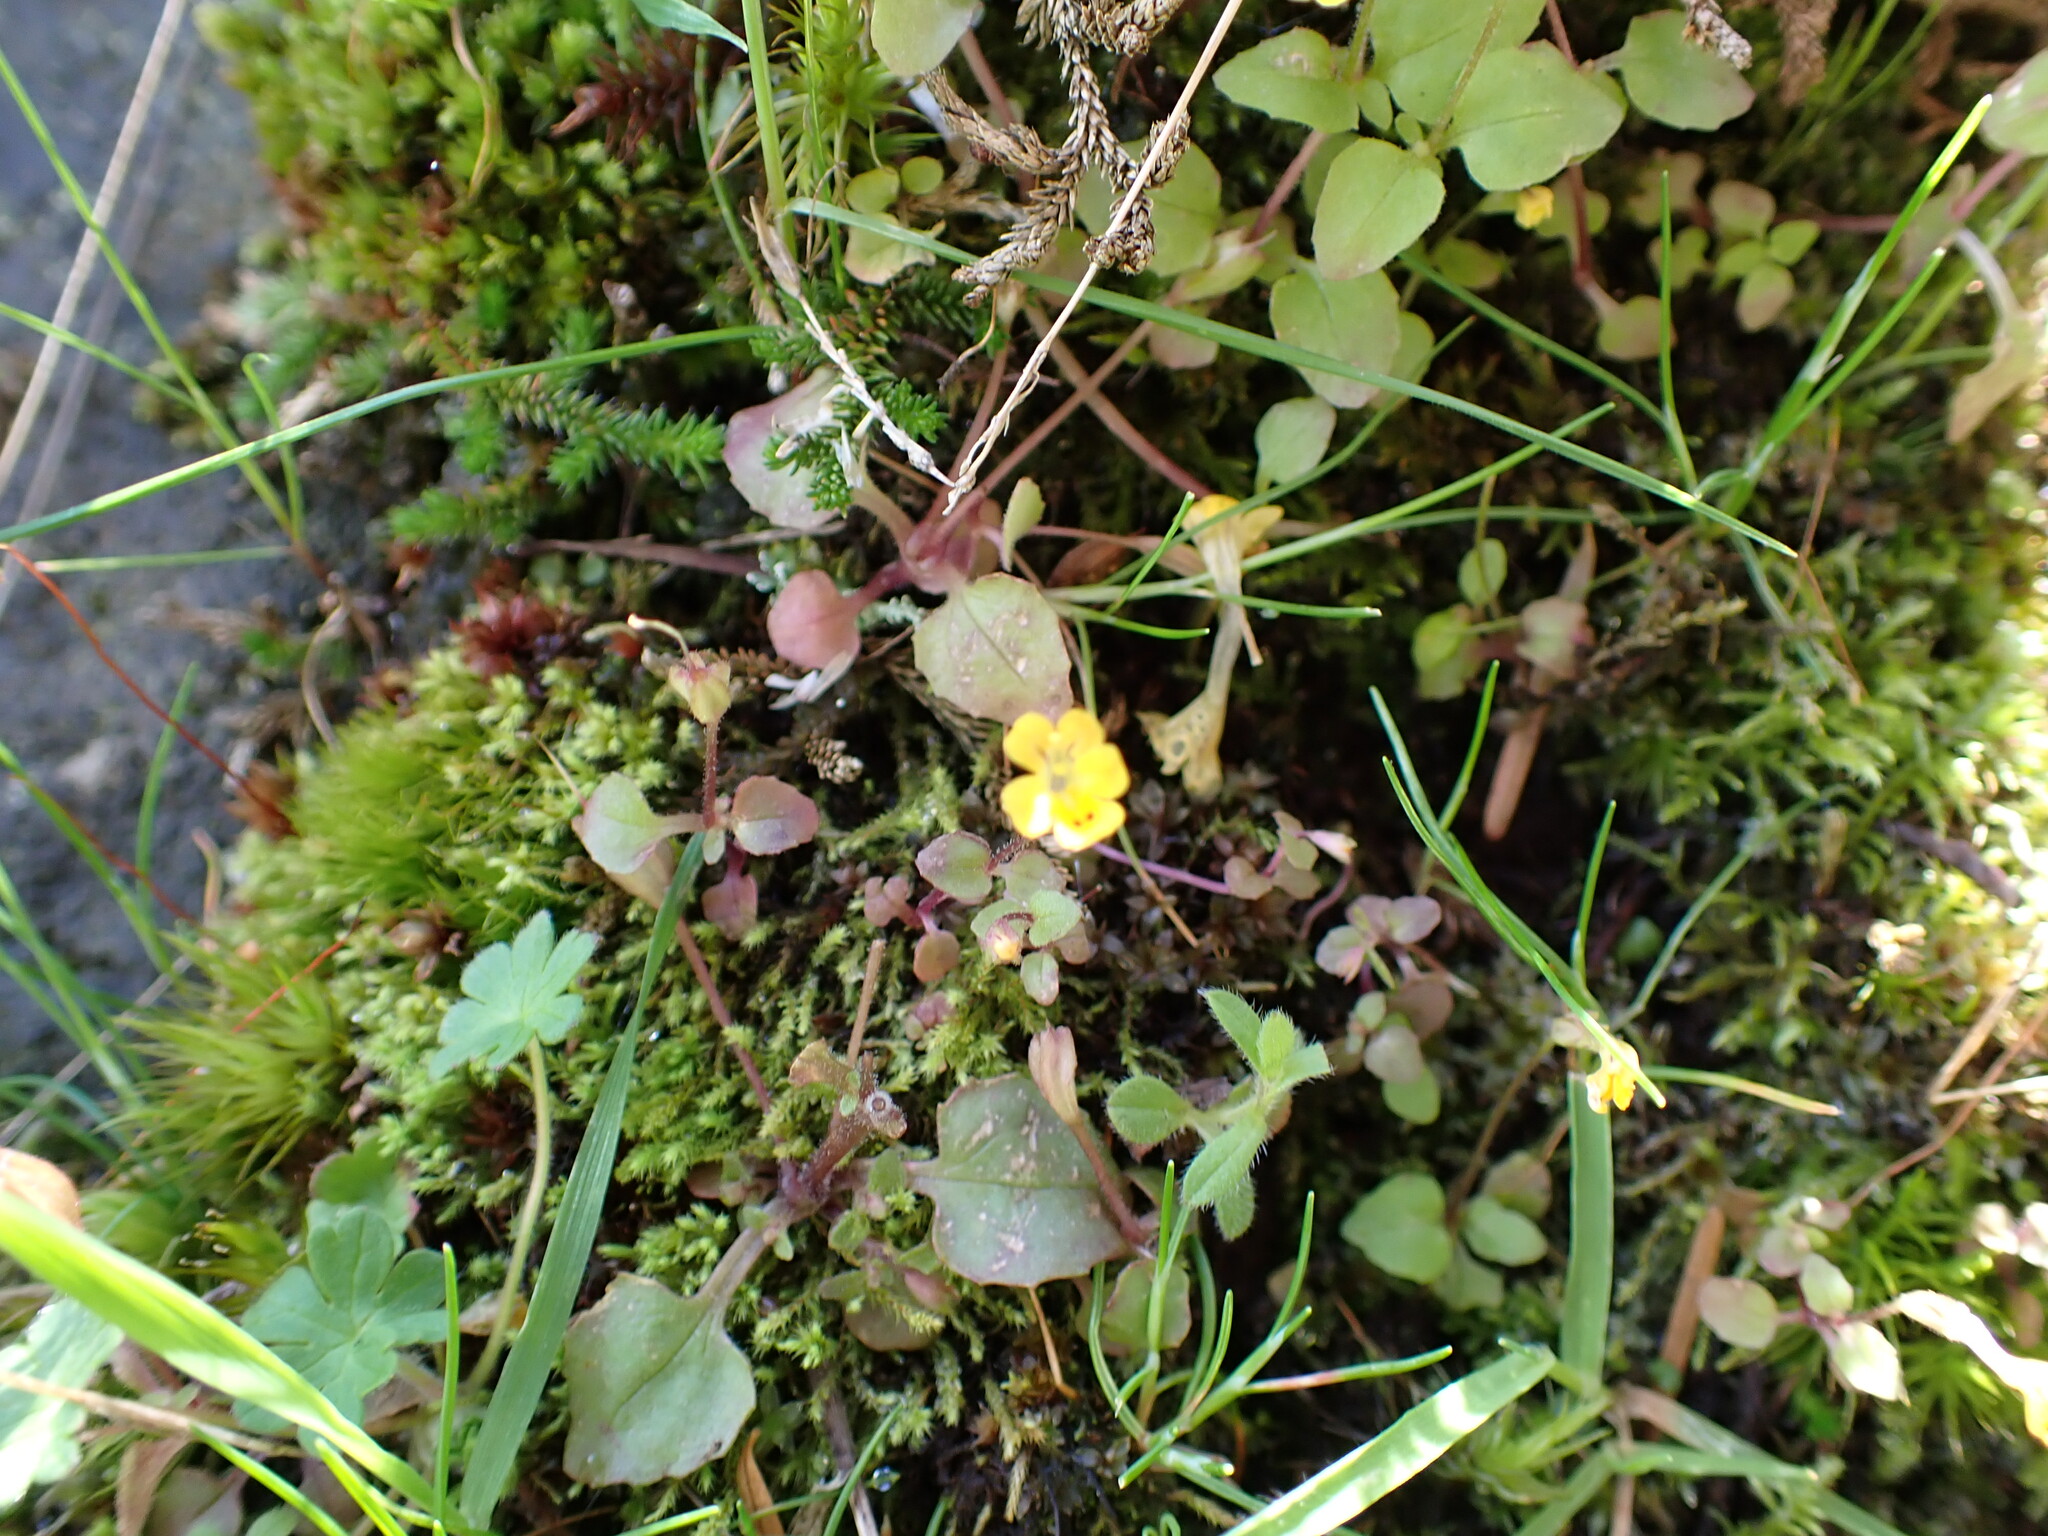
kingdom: Plantae
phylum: Tracheophyta
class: Magnoliopsida
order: Lamiales
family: Phrymaceae
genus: Erythranthe
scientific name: Erythranthe alsinoides
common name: Chickweed monkeyflower
